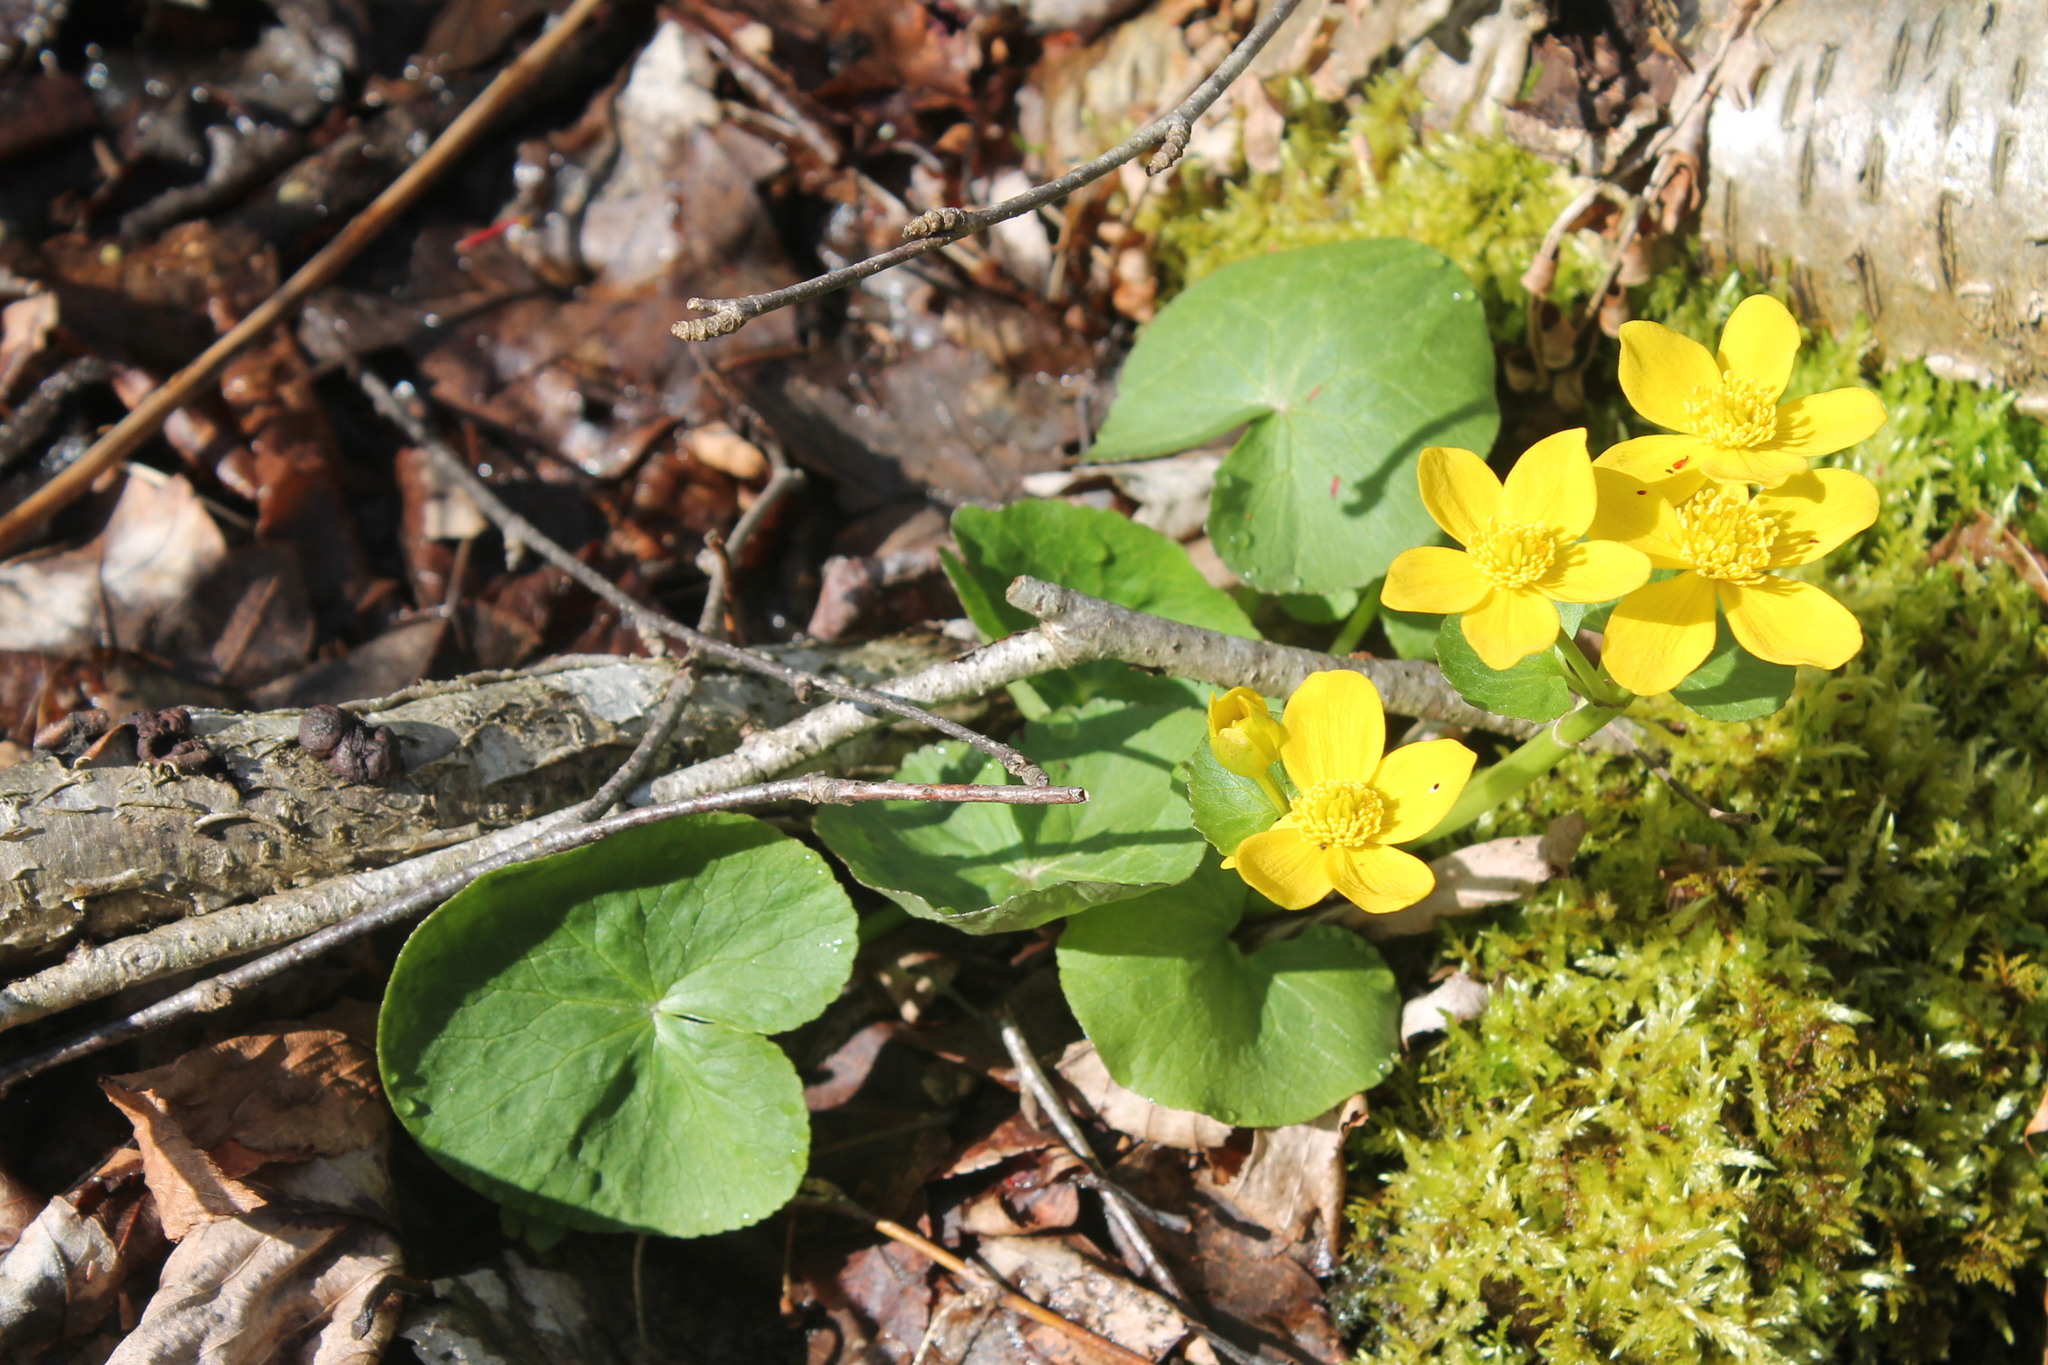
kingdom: Plantae
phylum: Tracheophyta
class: Magnoliopsida
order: Ranunculales
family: Ranunculaceae
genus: Caltha
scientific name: Caltha palustris
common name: Marsh marigold
